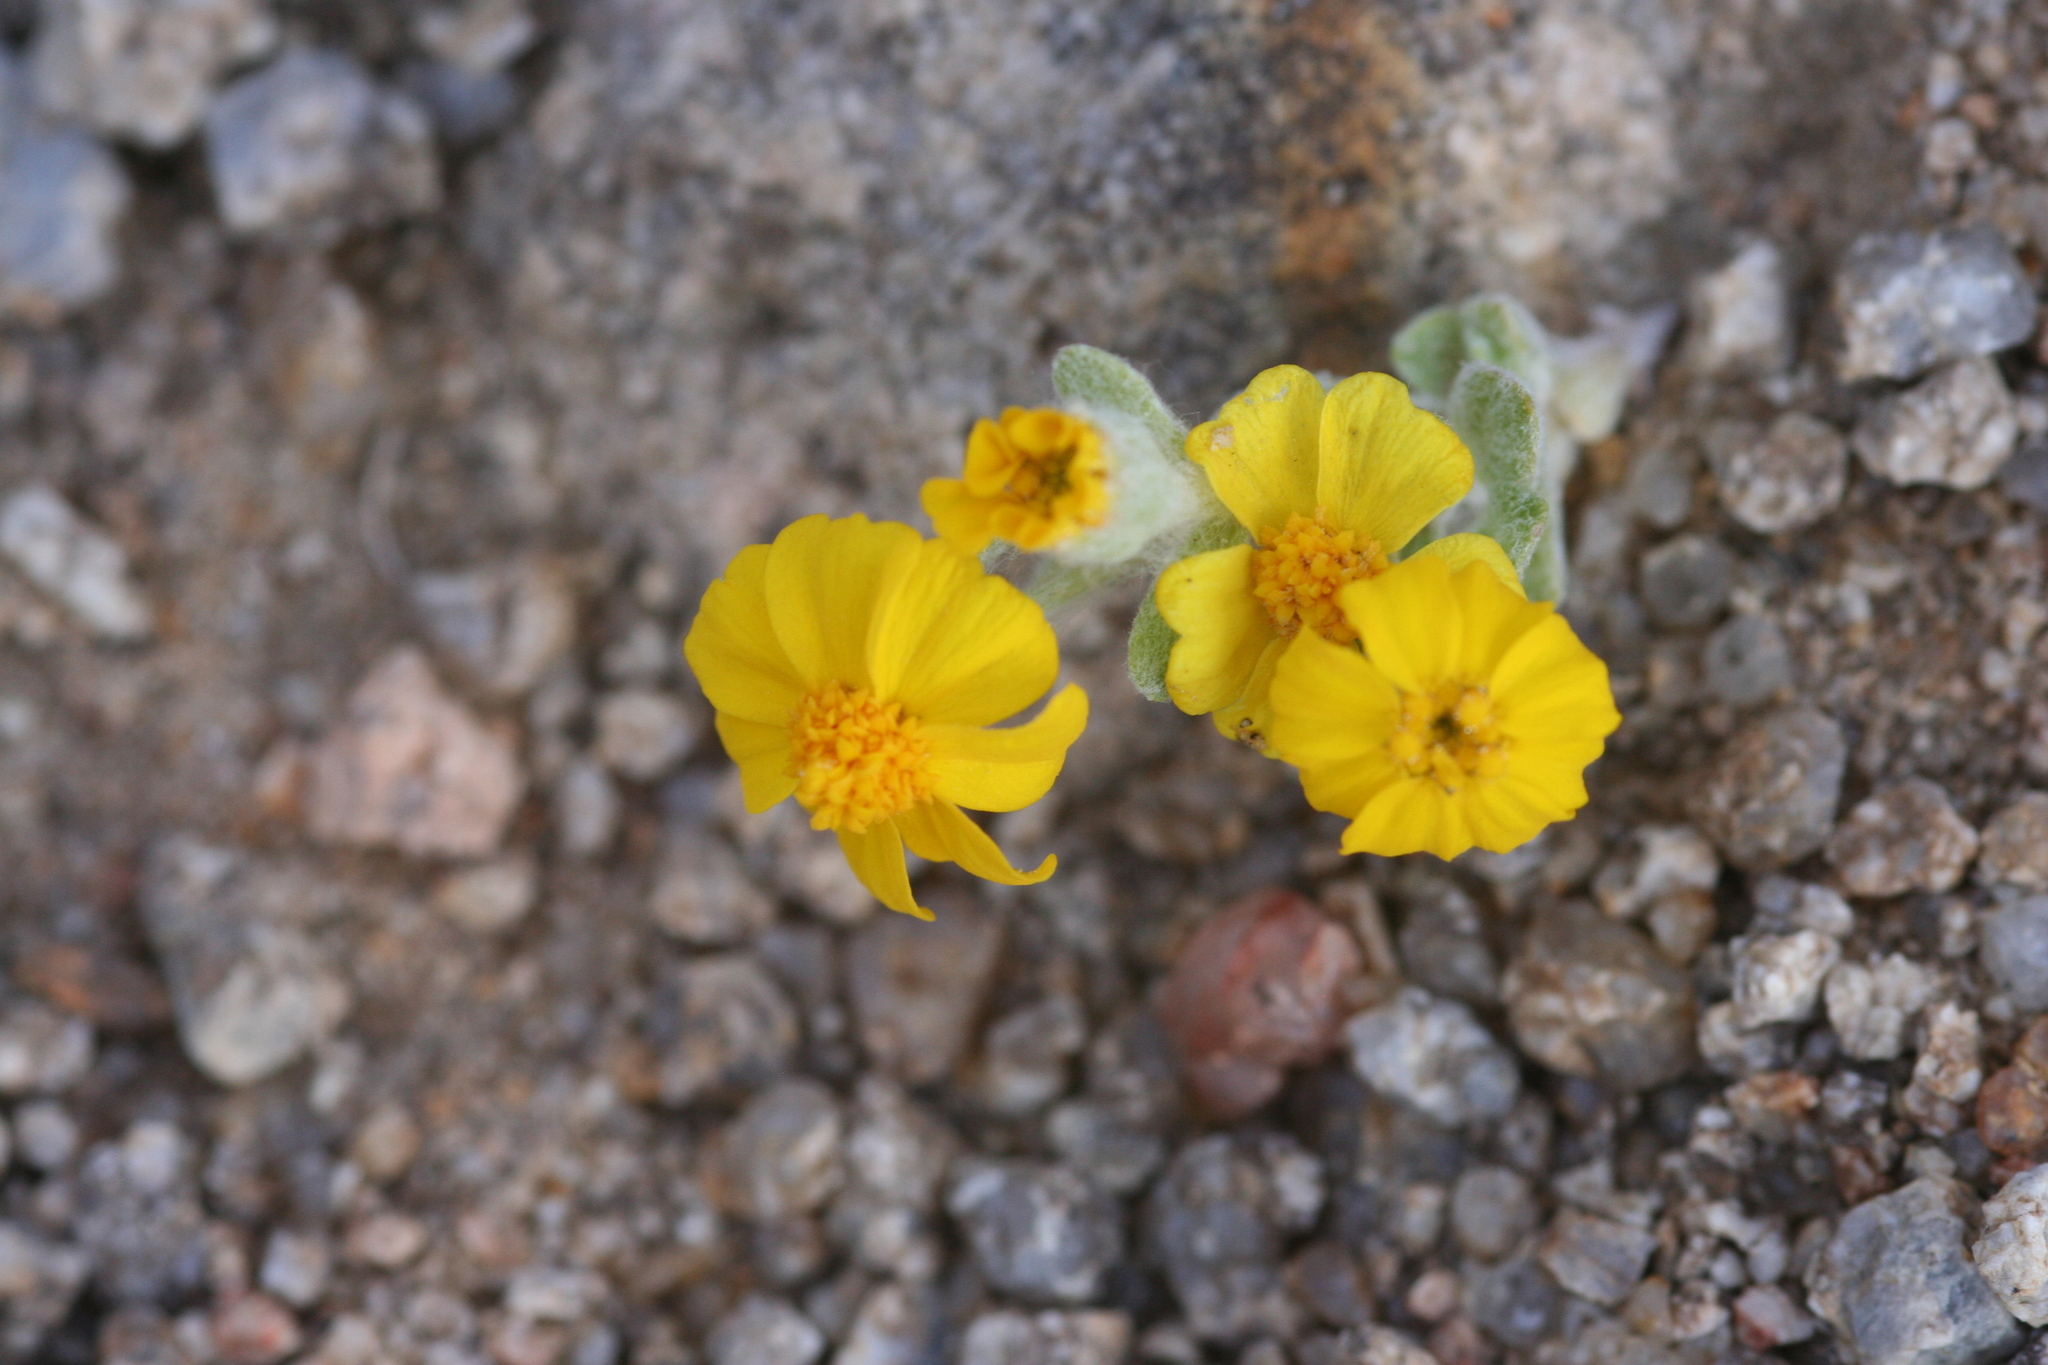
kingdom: Plantae
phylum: Tracheophyta
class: Magnoliopsida
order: Asterales
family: Asteraceae
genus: Eriophyllum
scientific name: Eriophyllum wallacei
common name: Wallace's woolly daisy
